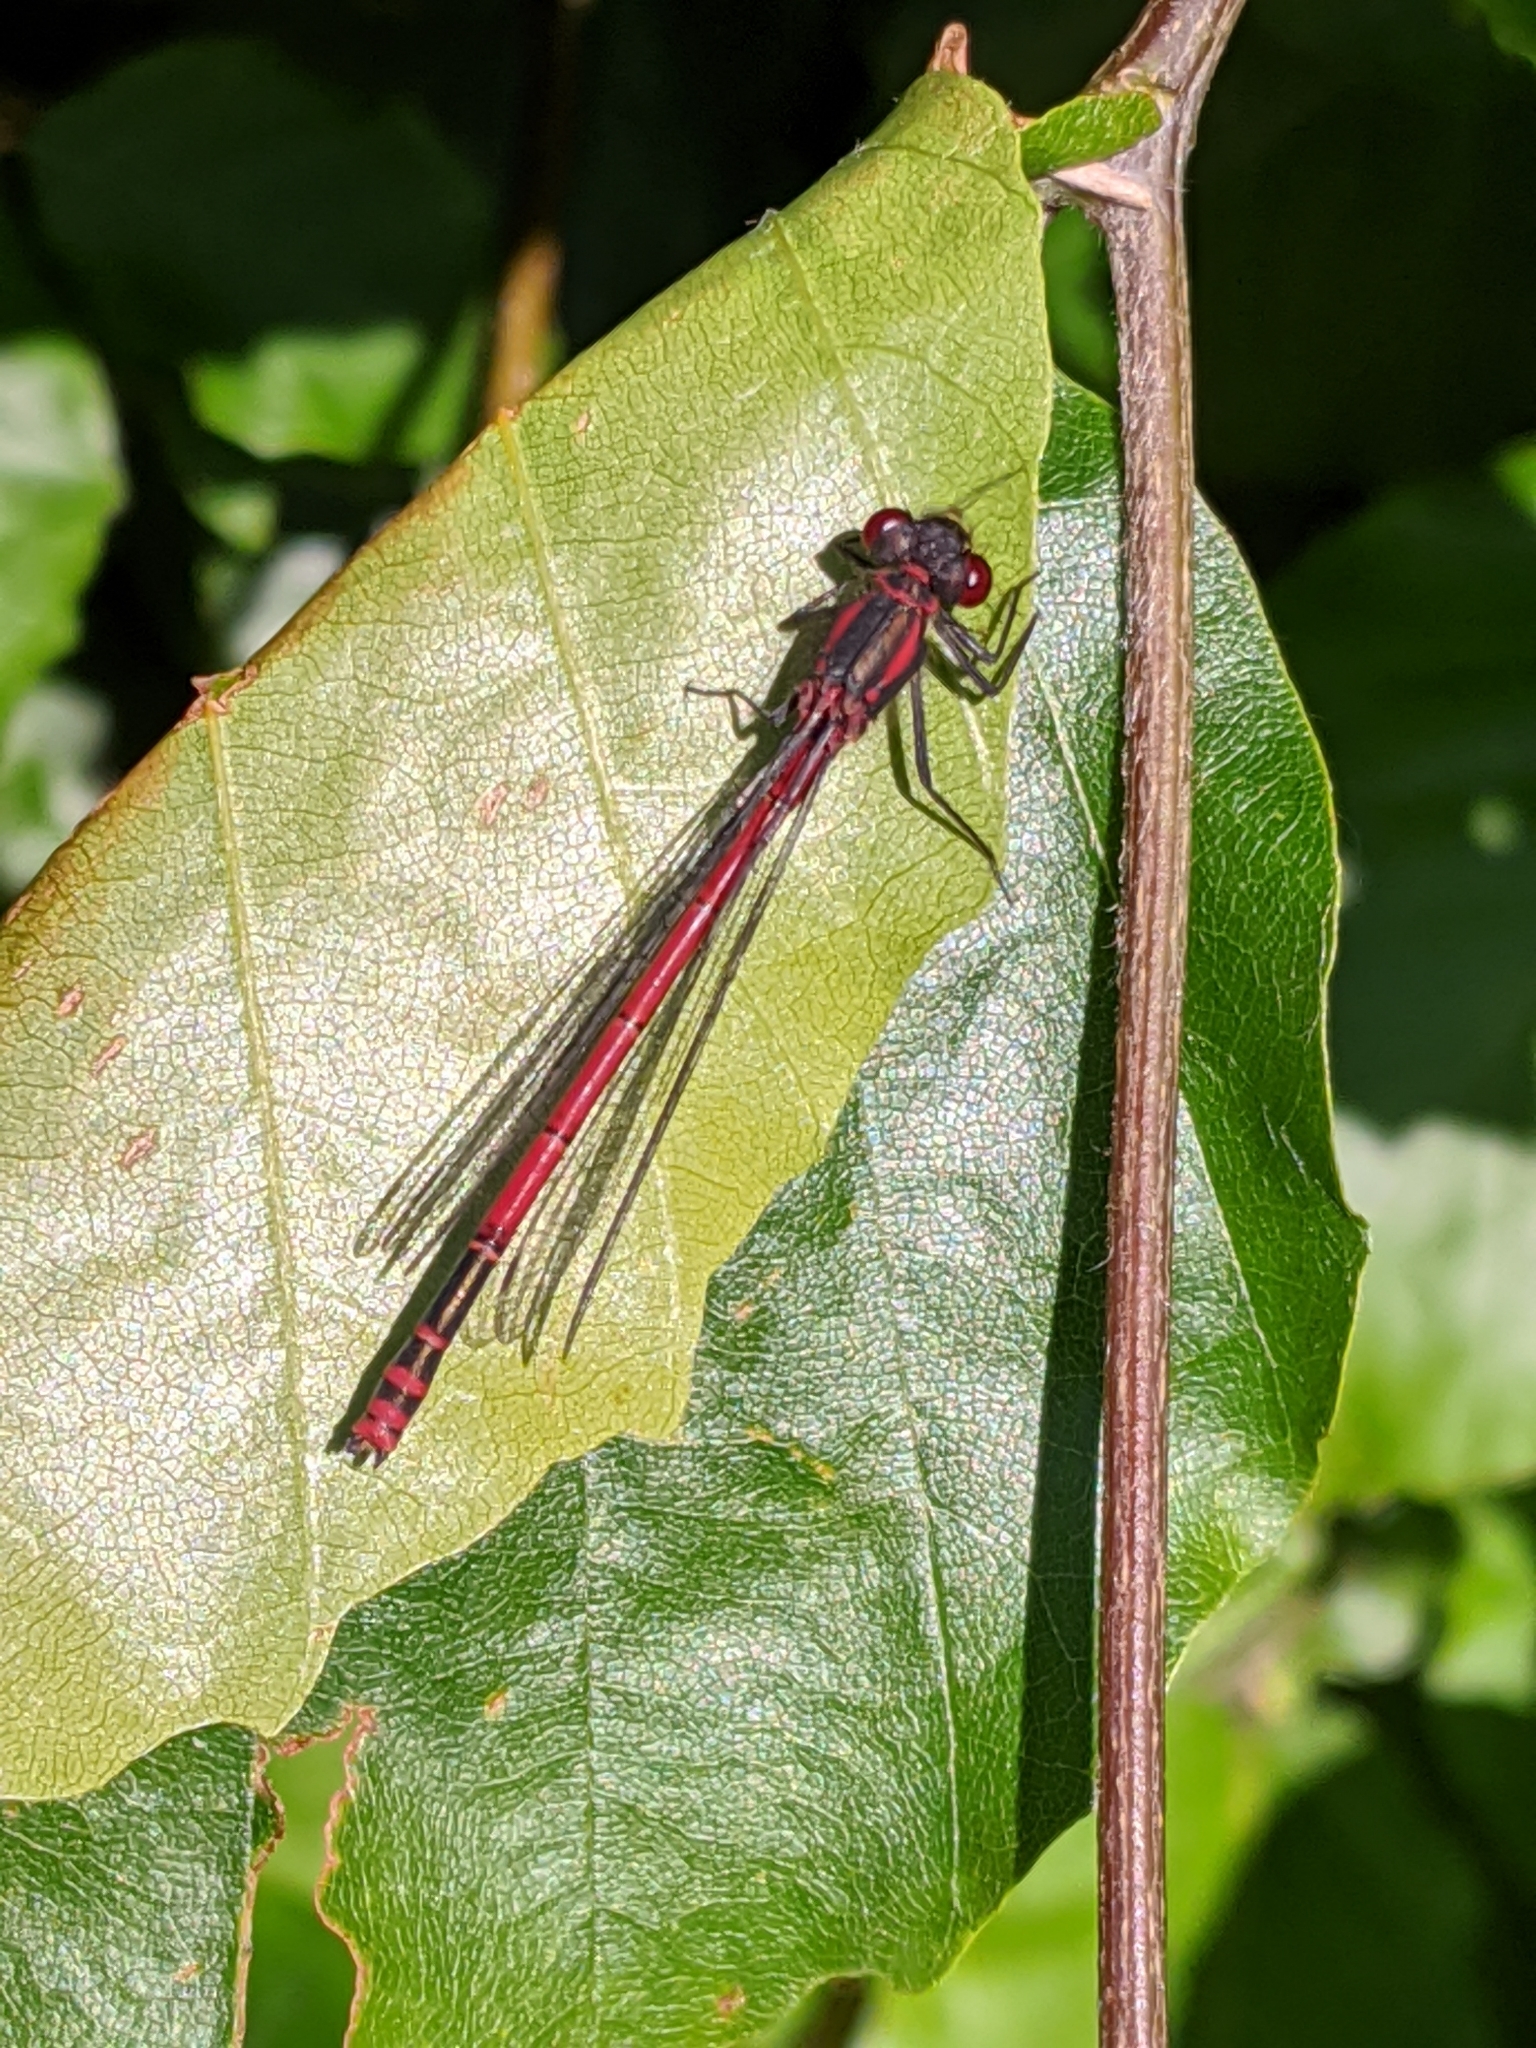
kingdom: Animalia
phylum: Arthropoda
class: Insecta
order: Odonata
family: Coenagrionidae
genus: Pyrrhosoma
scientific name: Pyrrhosoma nymphula
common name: Large red damsel
